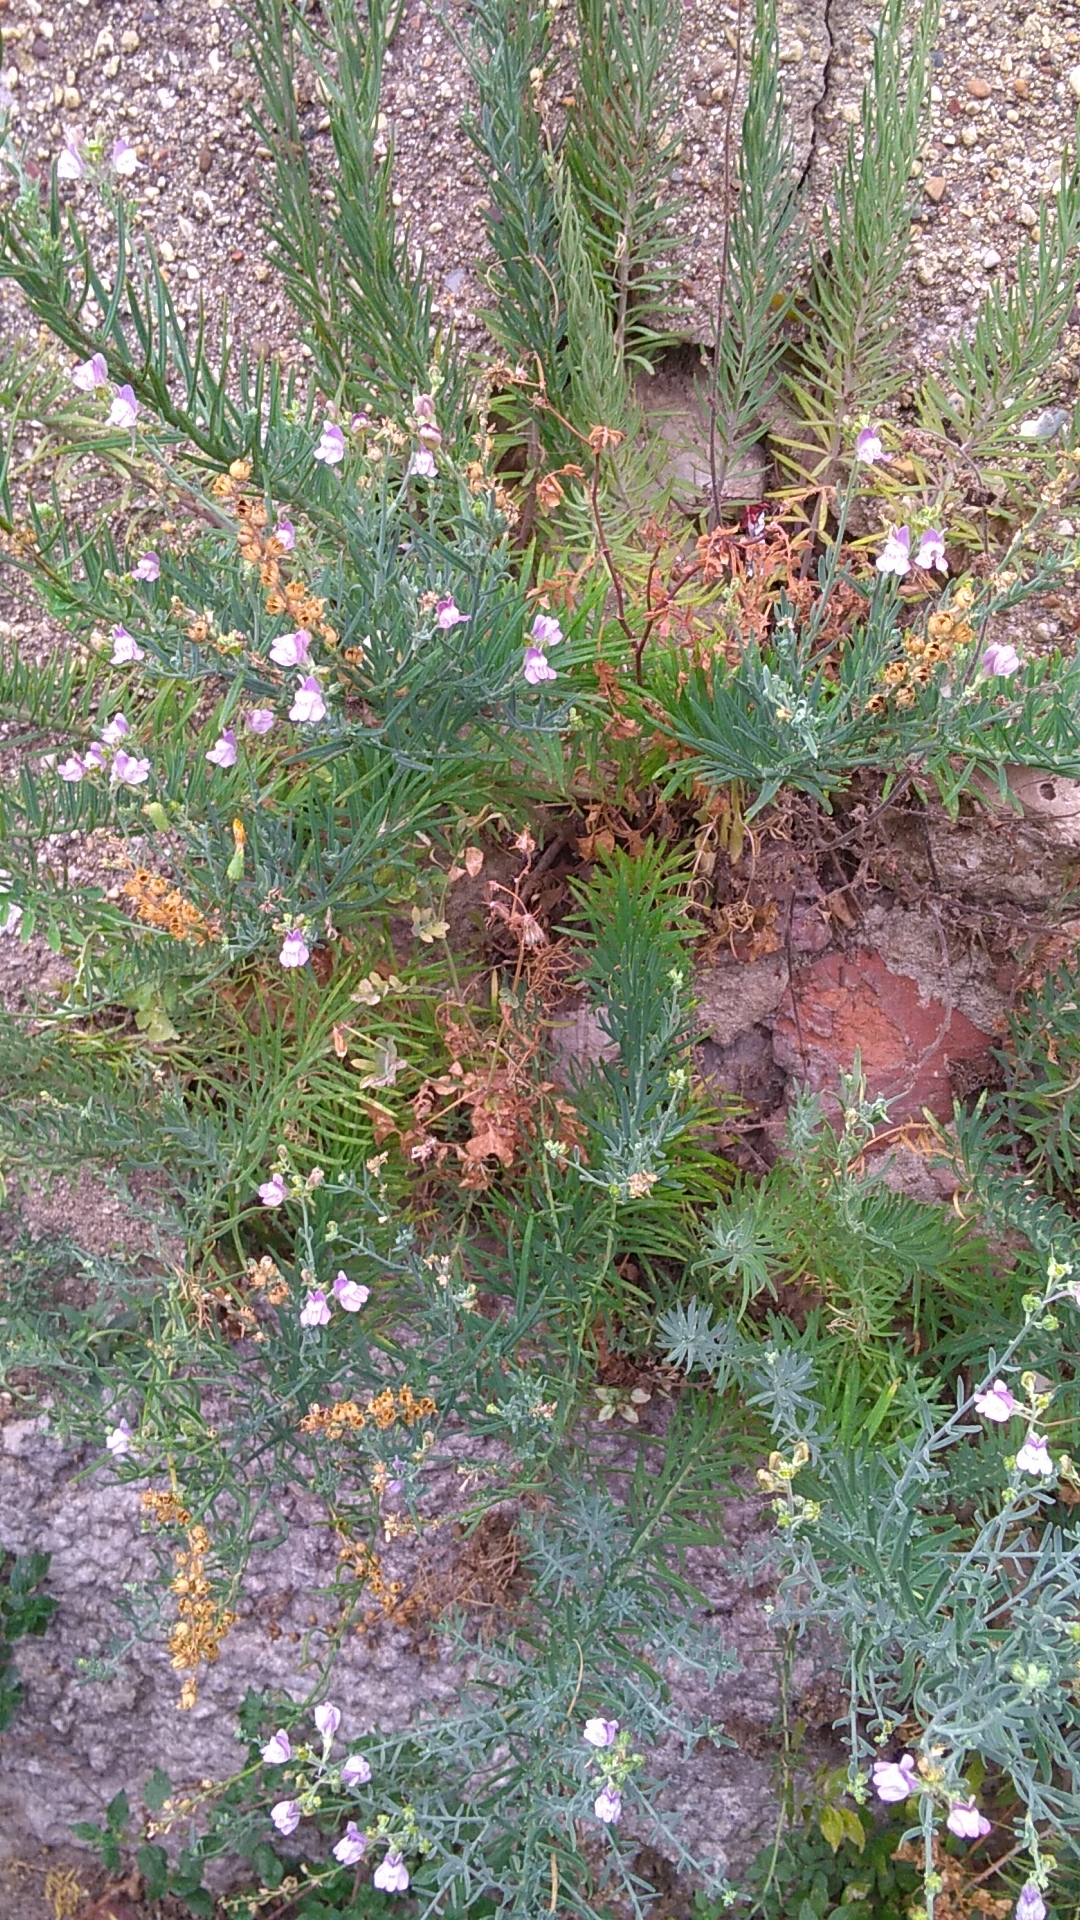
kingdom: Plantae
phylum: Tracheophyta
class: Magnoliopsida
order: Lamiales
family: Plantaginaceae
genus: Linaria
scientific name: Linaria capraria
